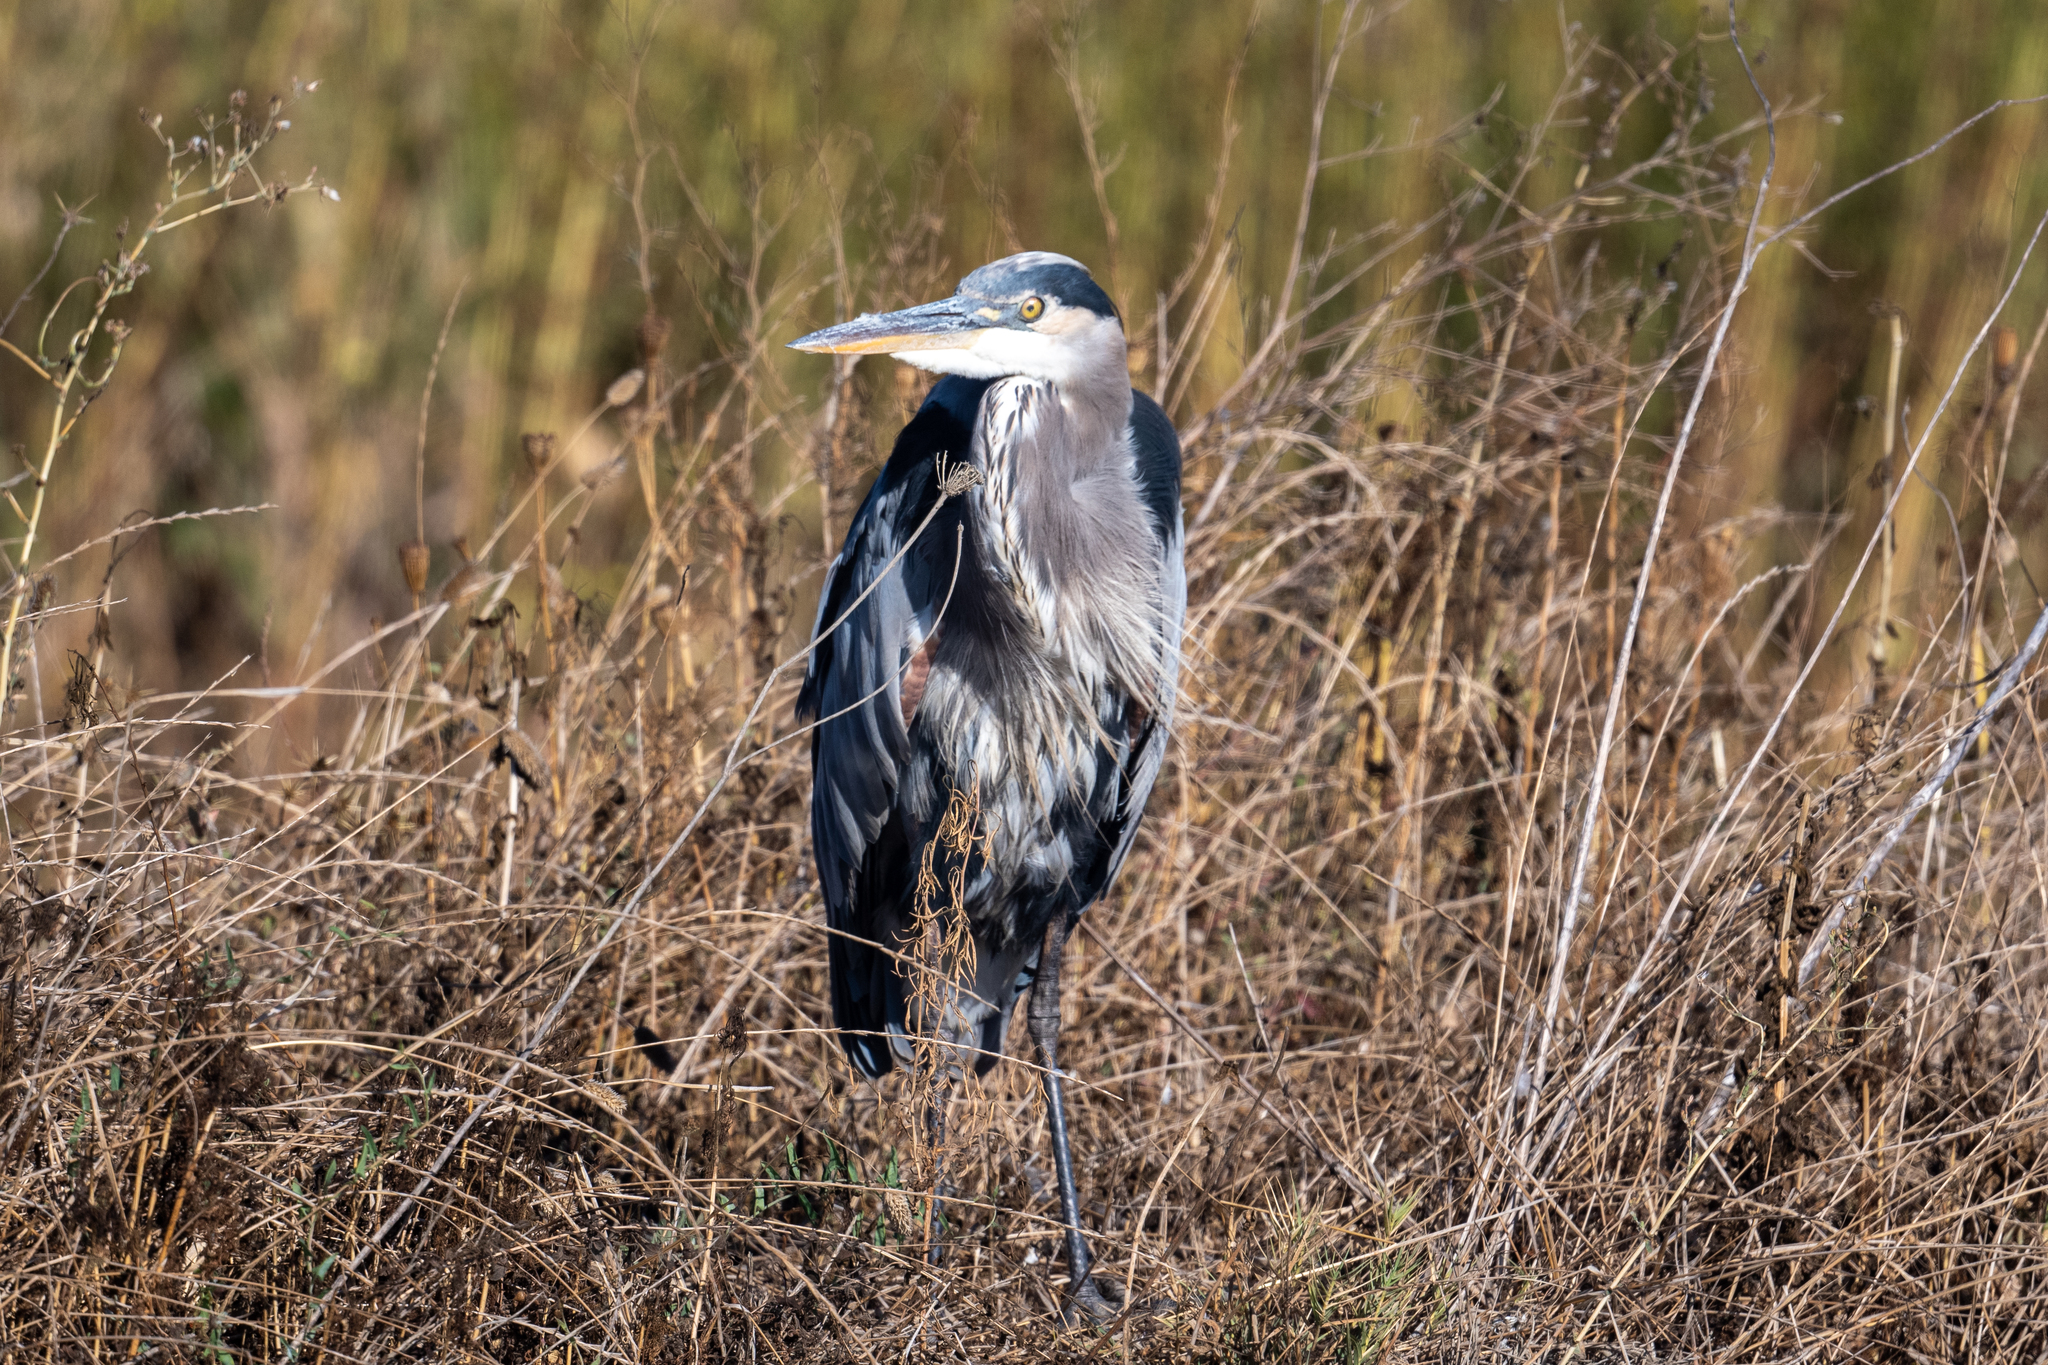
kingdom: Animalia
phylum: Chordata
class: Aves
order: Pelecaniformes
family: Ardeidae
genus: Ardea
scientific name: Ardea herodias
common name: Great blue heron
